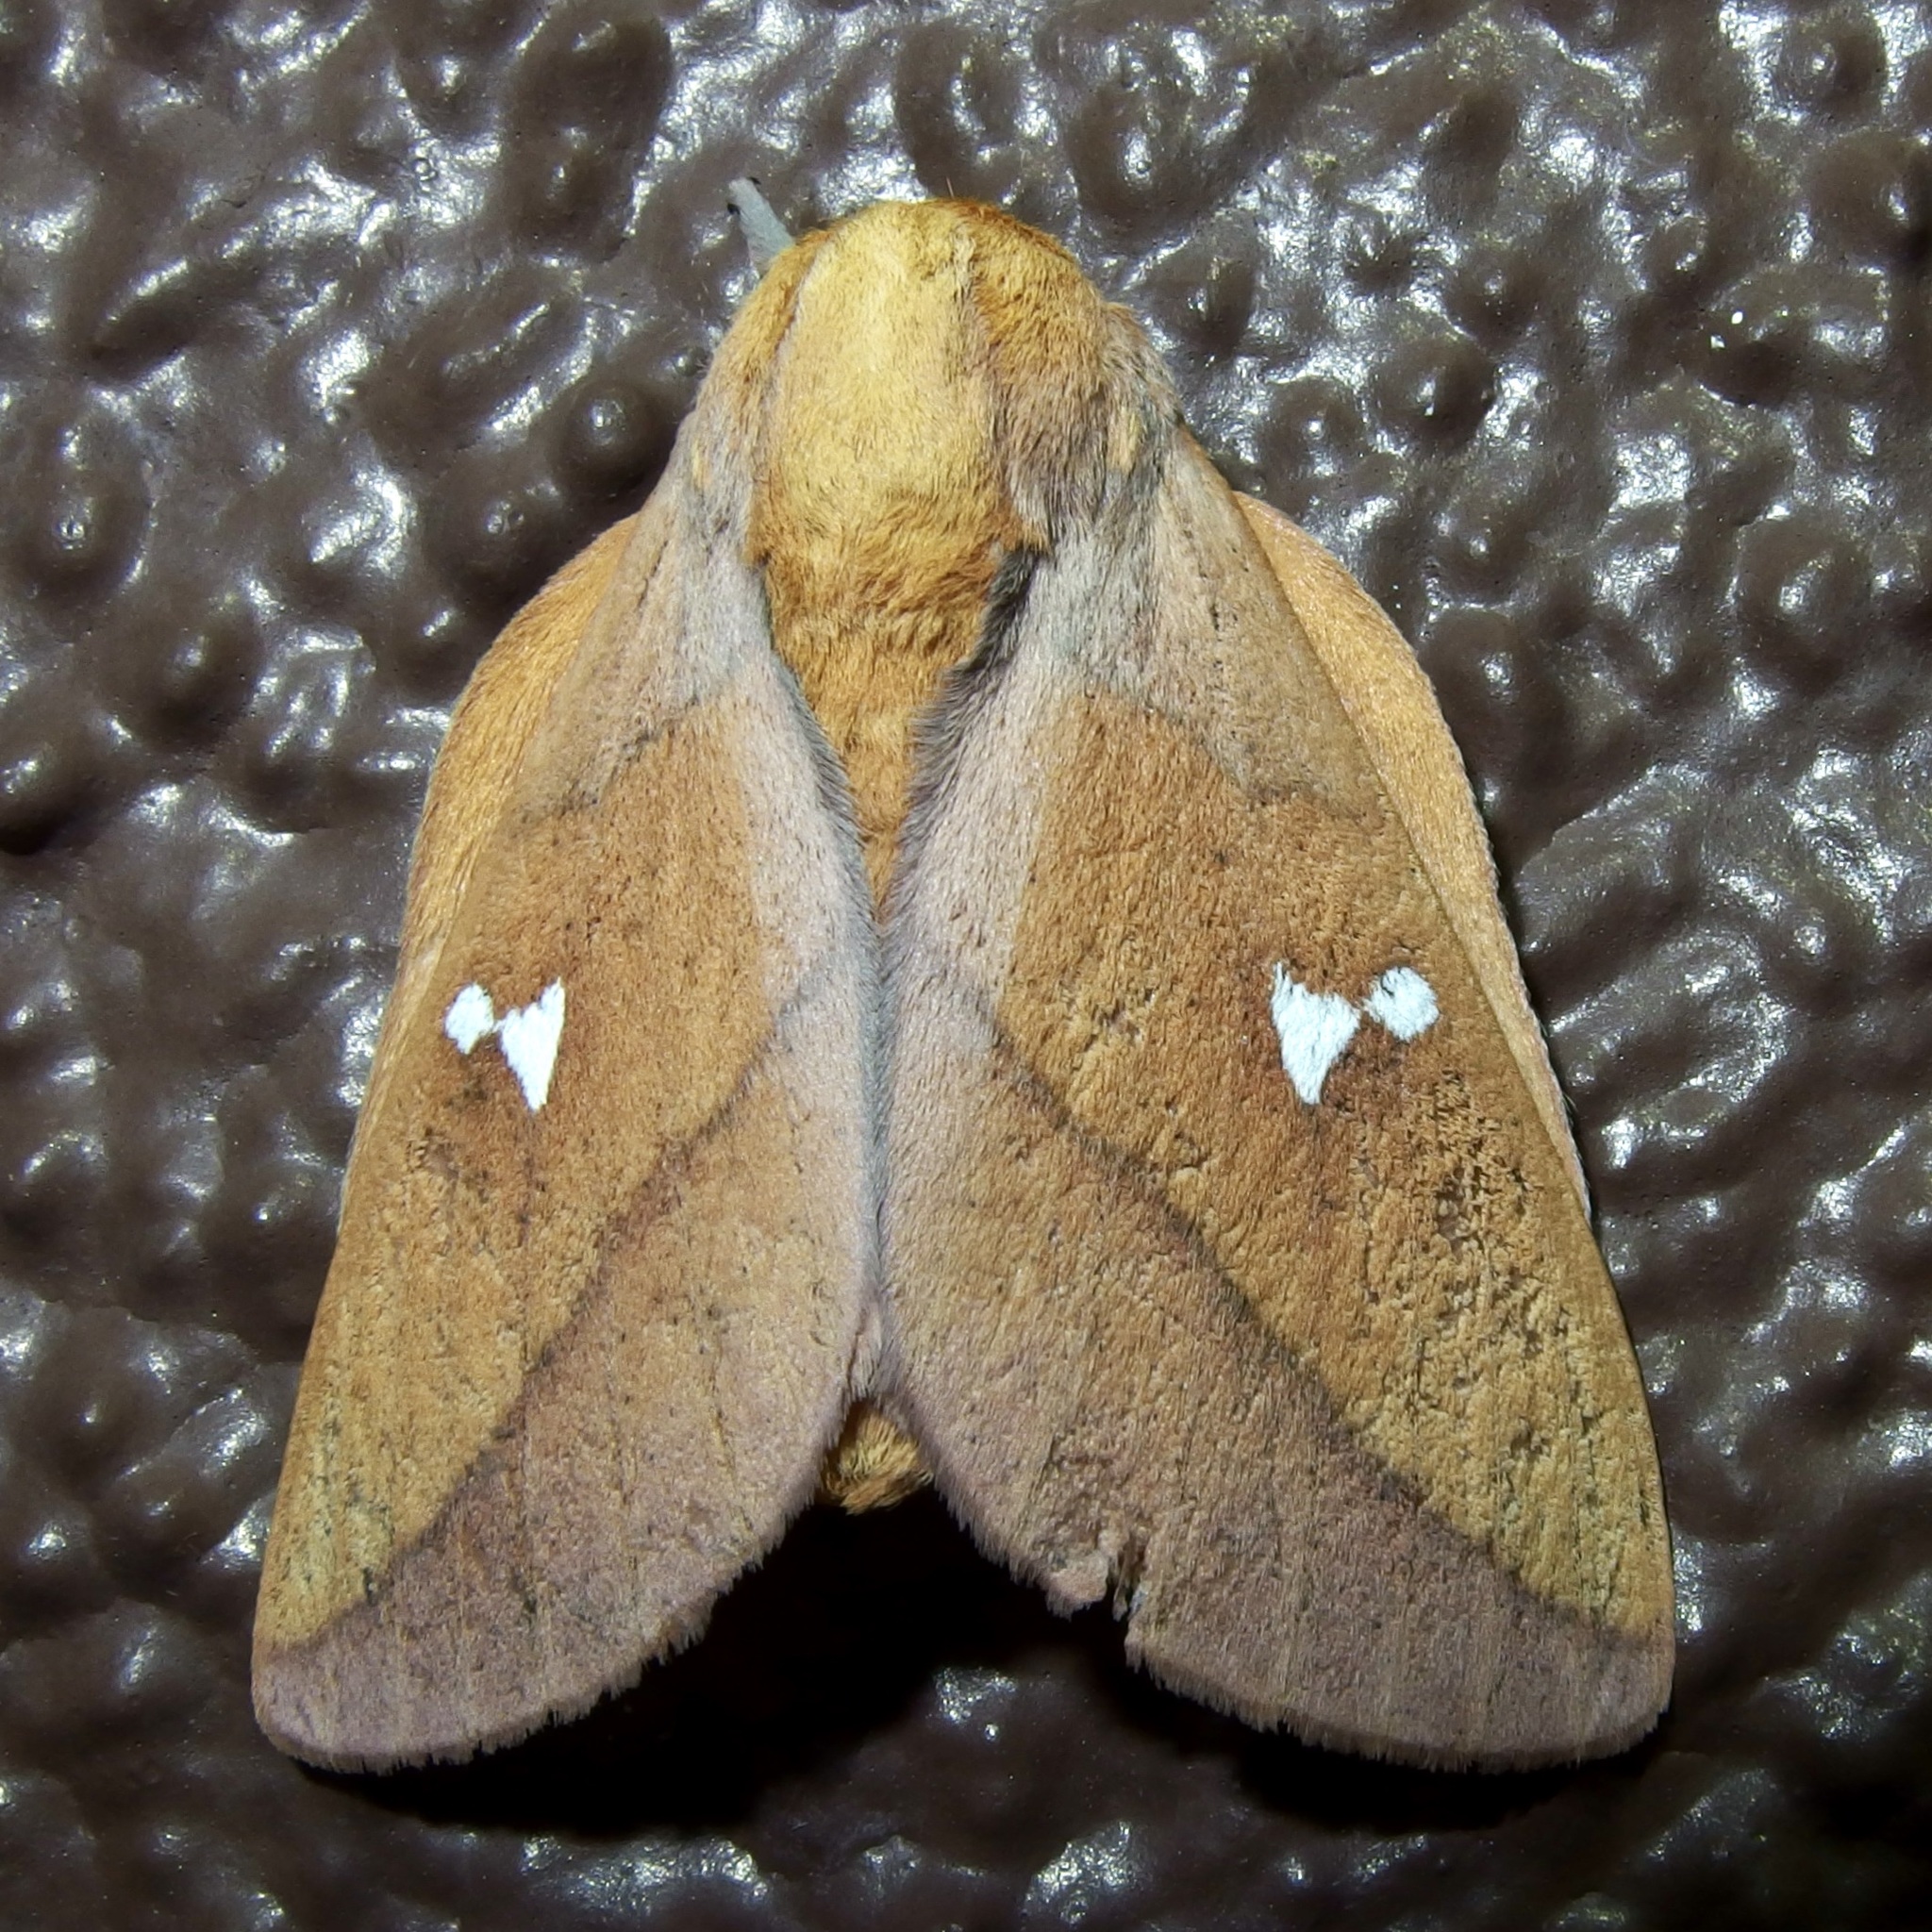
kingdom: Animalia
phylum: Arthropoda
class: Insecta
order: Lepidoptera
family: Saturniidae
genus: Syssphinx
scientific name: Syssphinx montana
